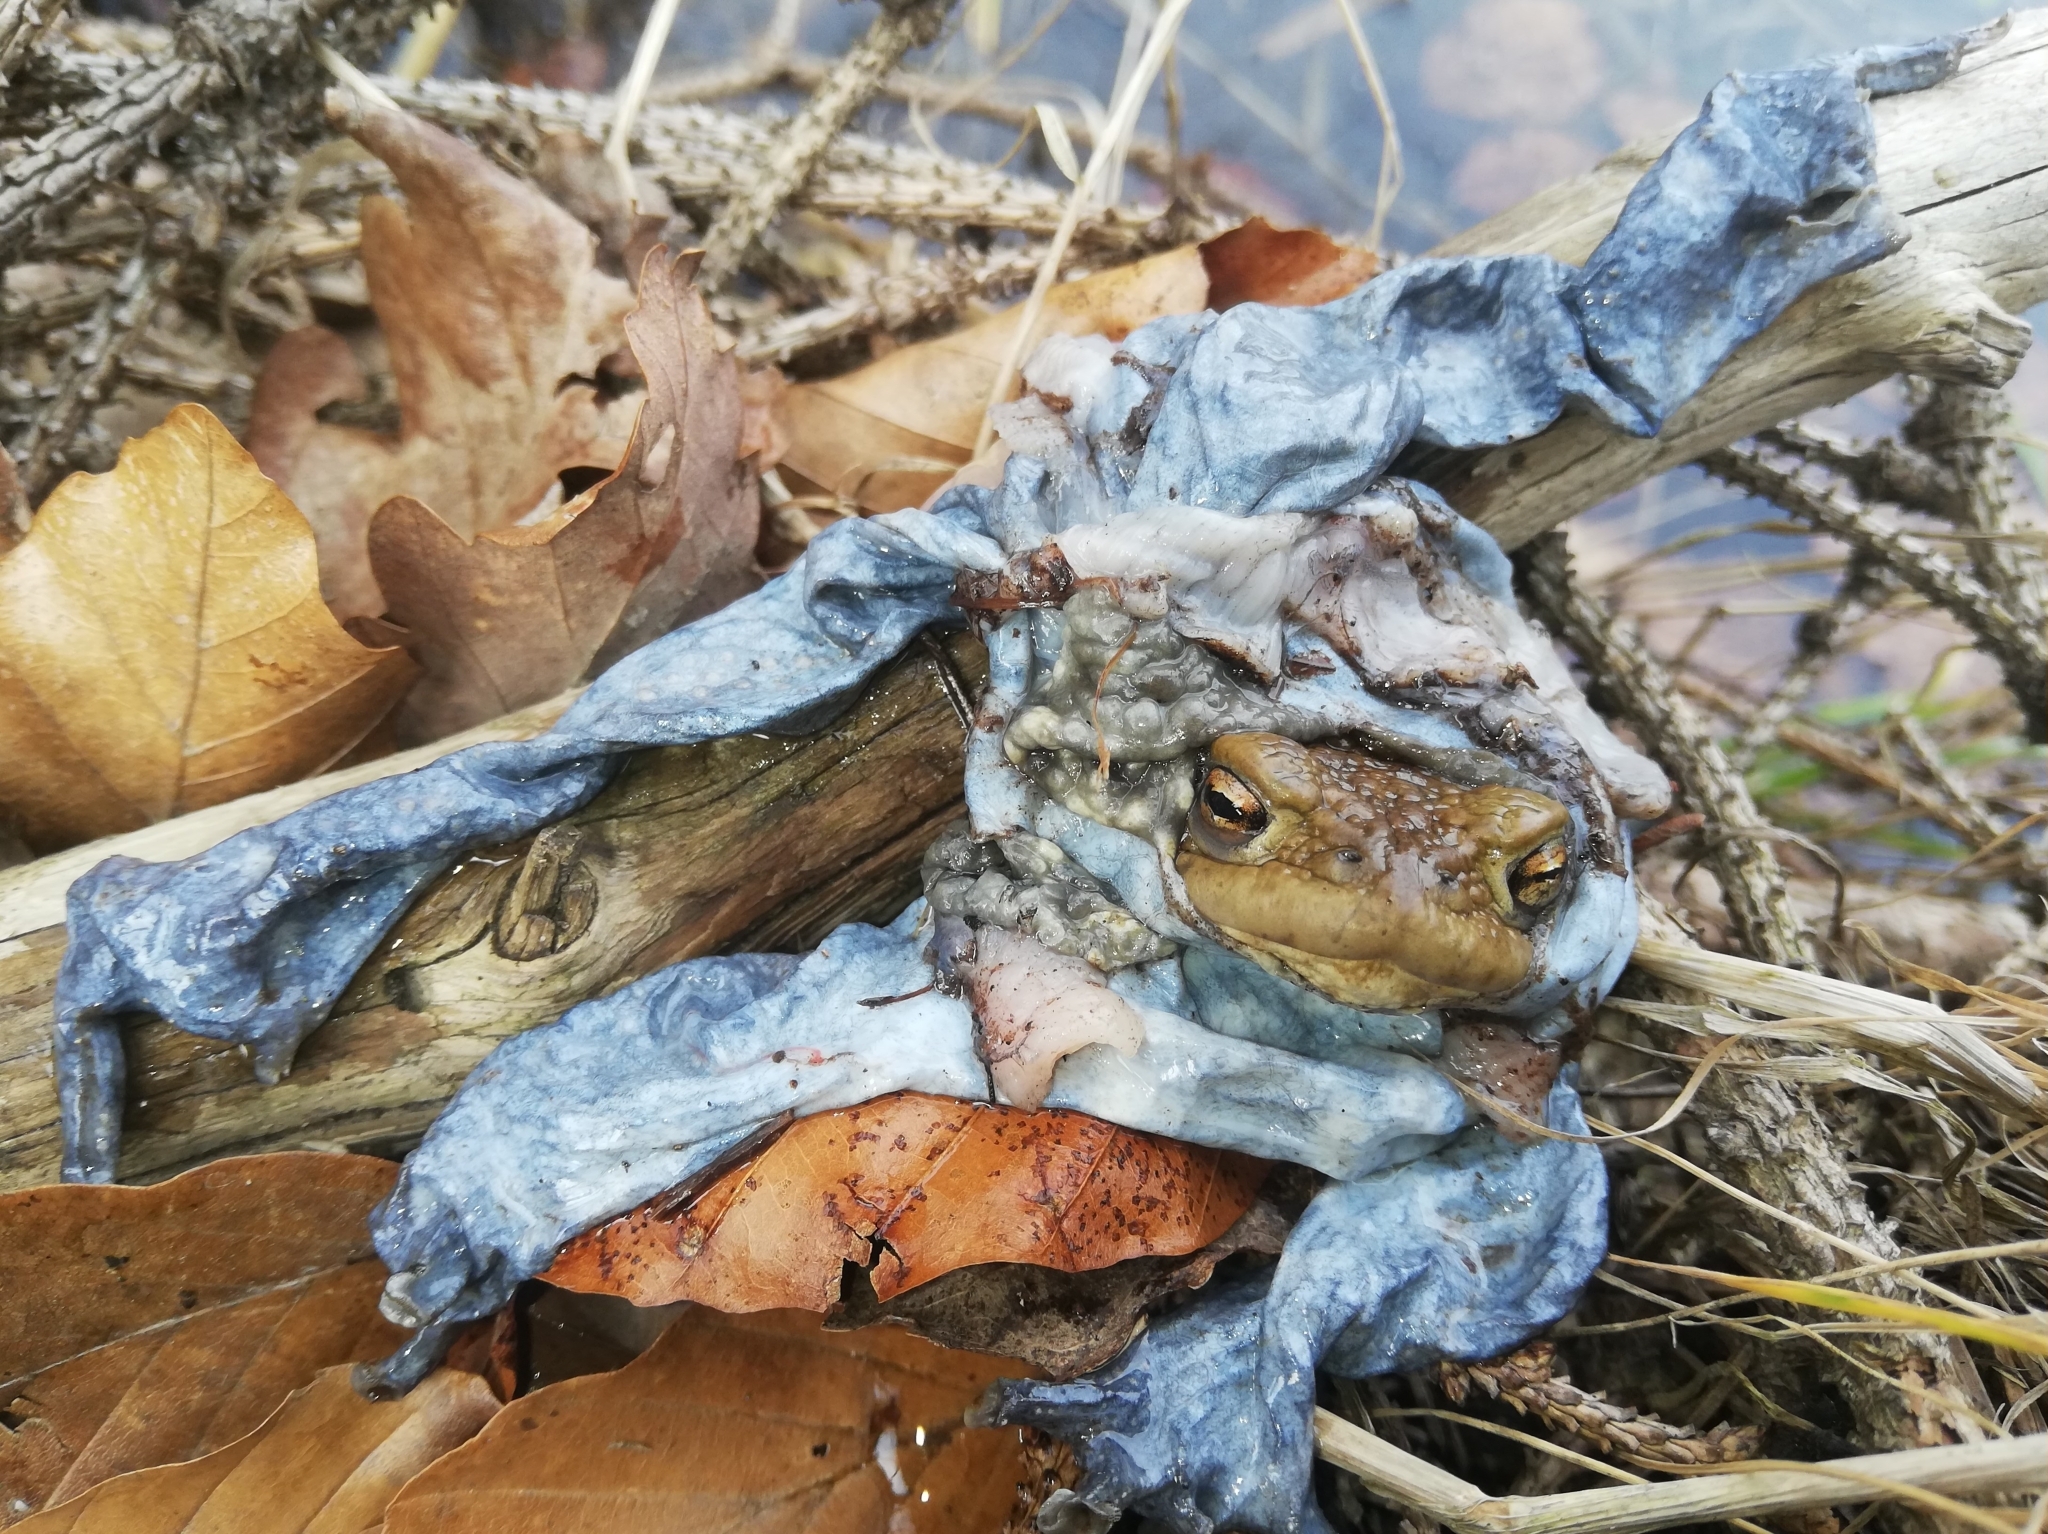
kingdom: Animalia
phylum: Chordata
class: Amphibia
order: Anura
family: Bufonidae
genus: Bufo
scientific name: Bufo bufo
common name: Common toad
